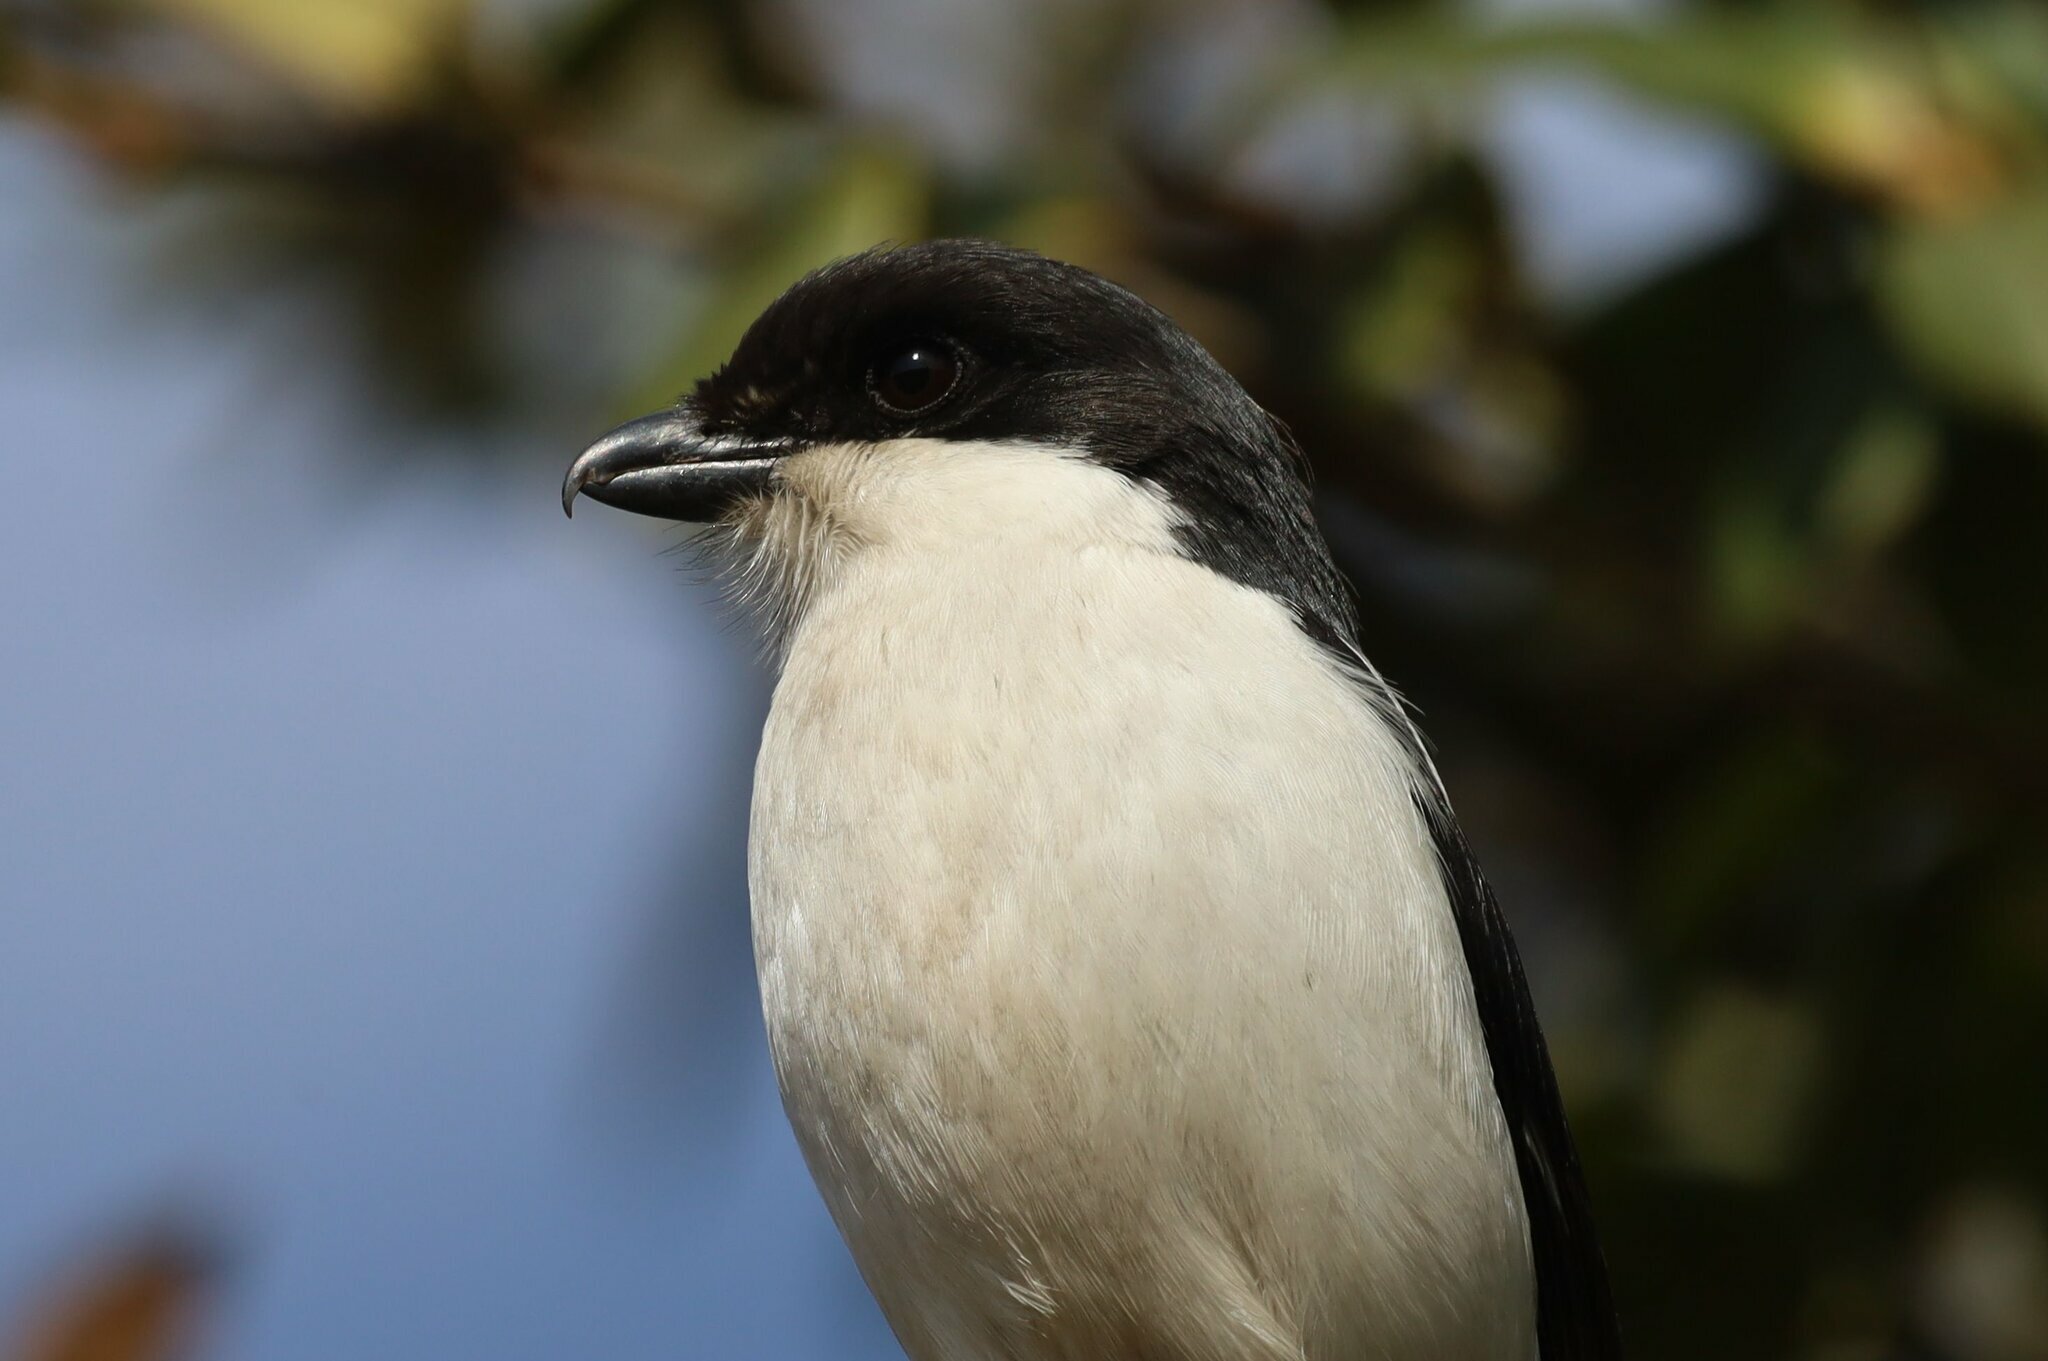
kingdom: Animalia
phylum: Chordata
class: Aves
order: Passeriformes
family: Laniidae
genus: Lanius
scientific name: Lanius collaris
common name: Southern fiscal
